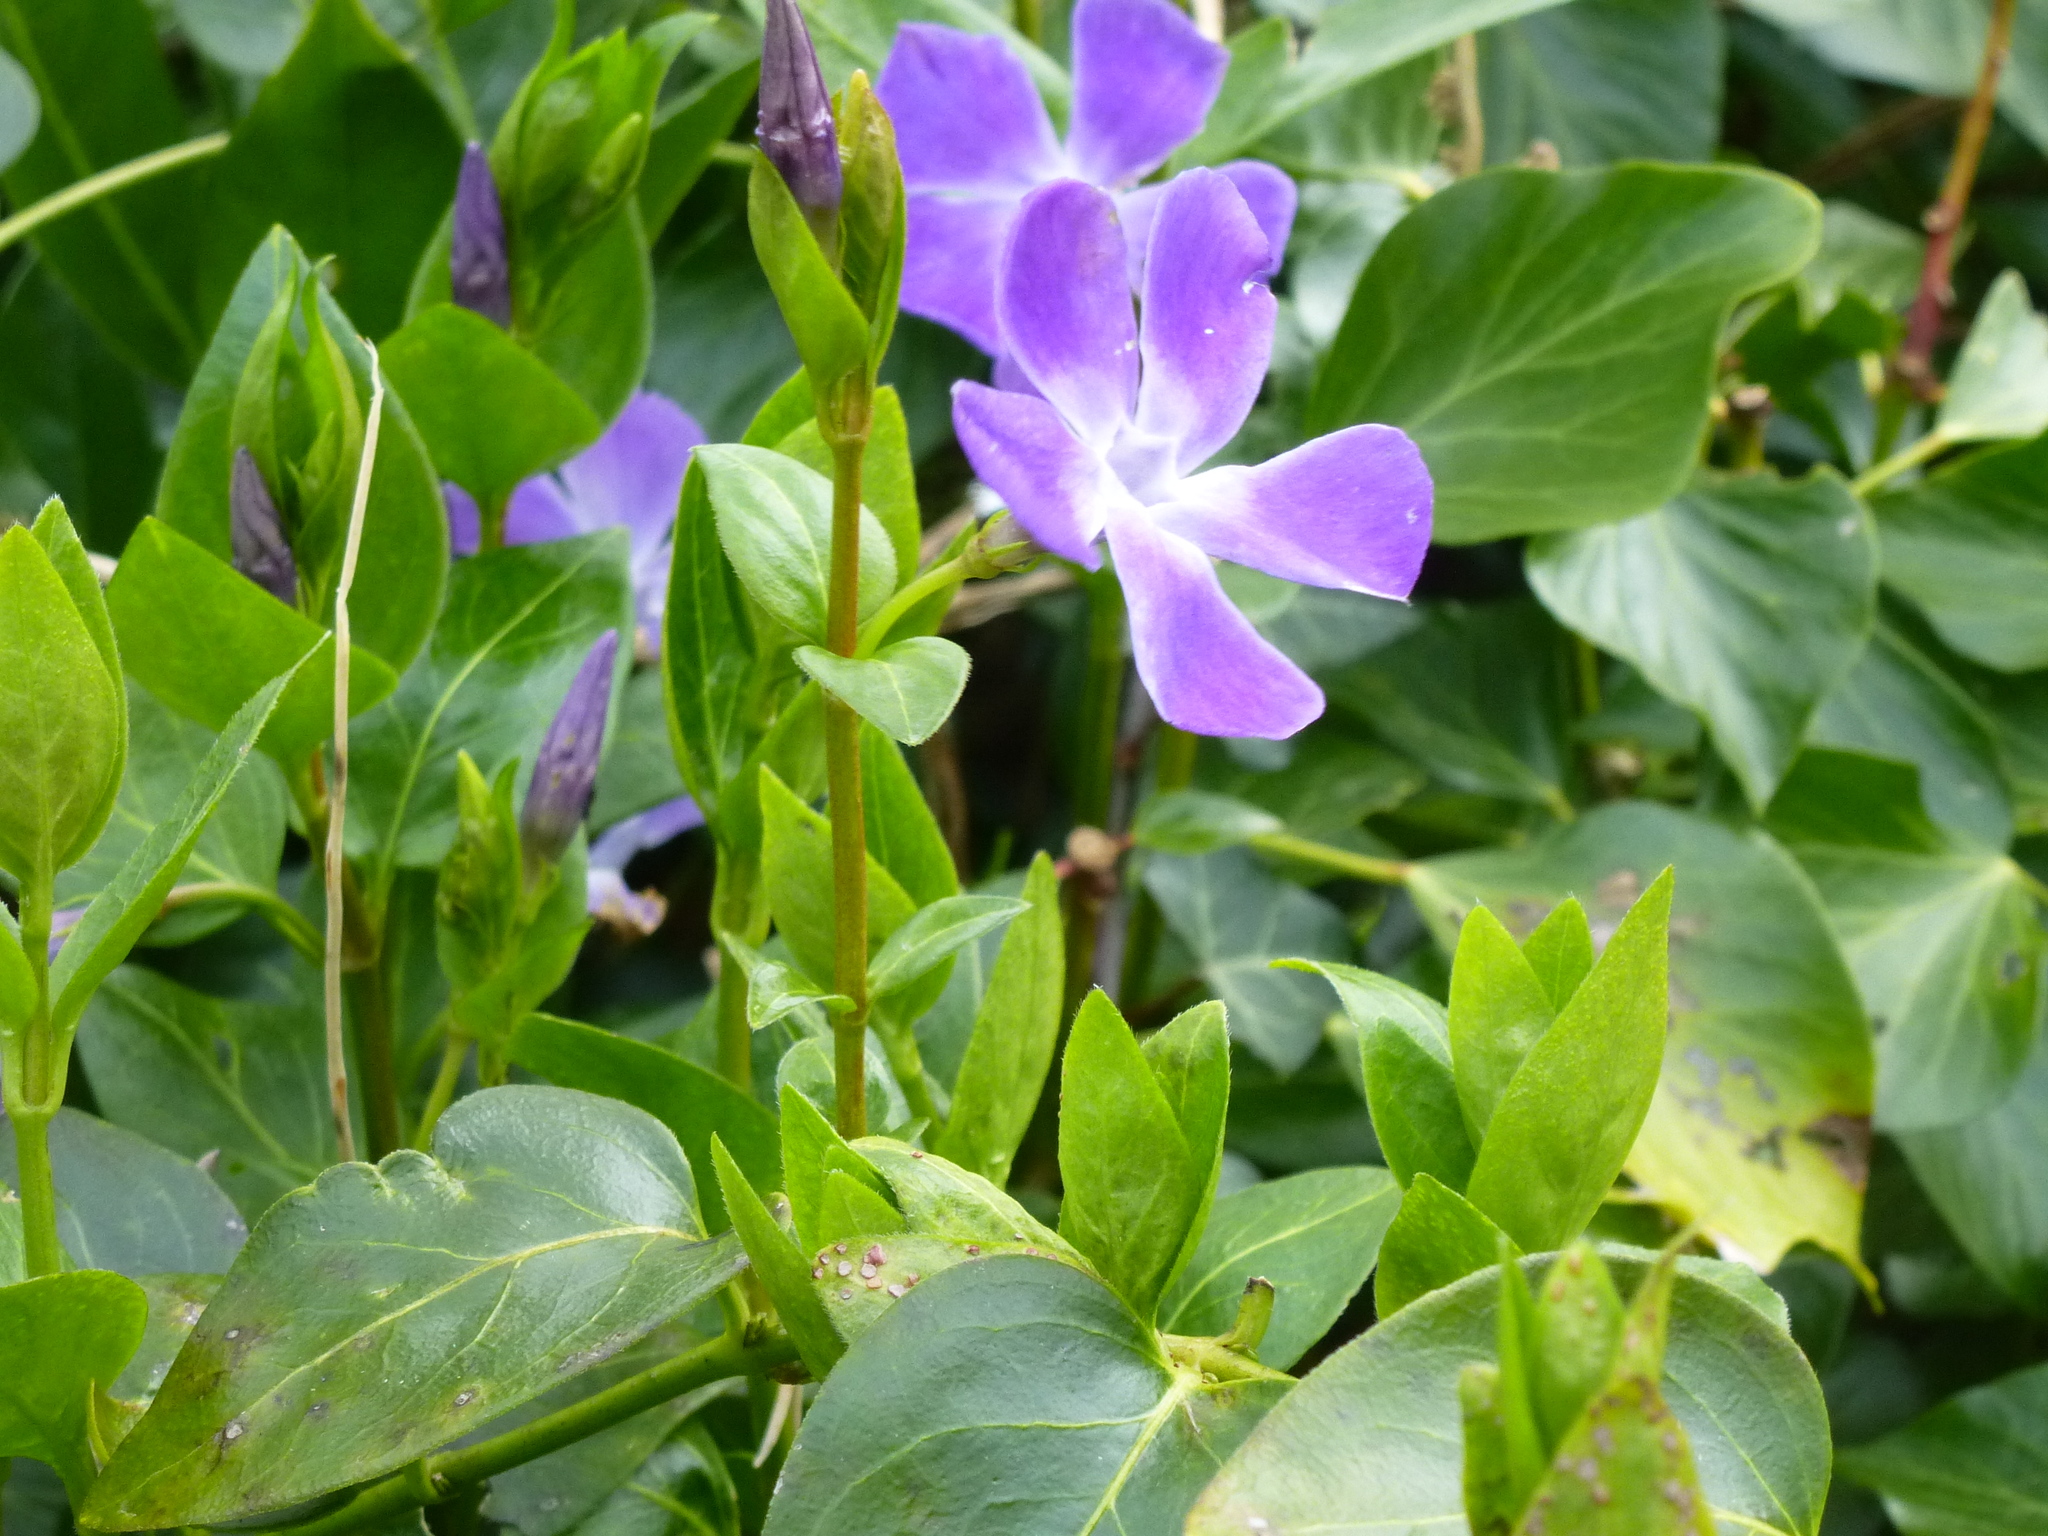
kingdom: Plantae
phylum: Tracheophyta
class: Magnoliopsida
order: Gentianales
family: Apocynaceae
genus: Vinca
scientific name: Vinca major
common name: Greater periwinkle
